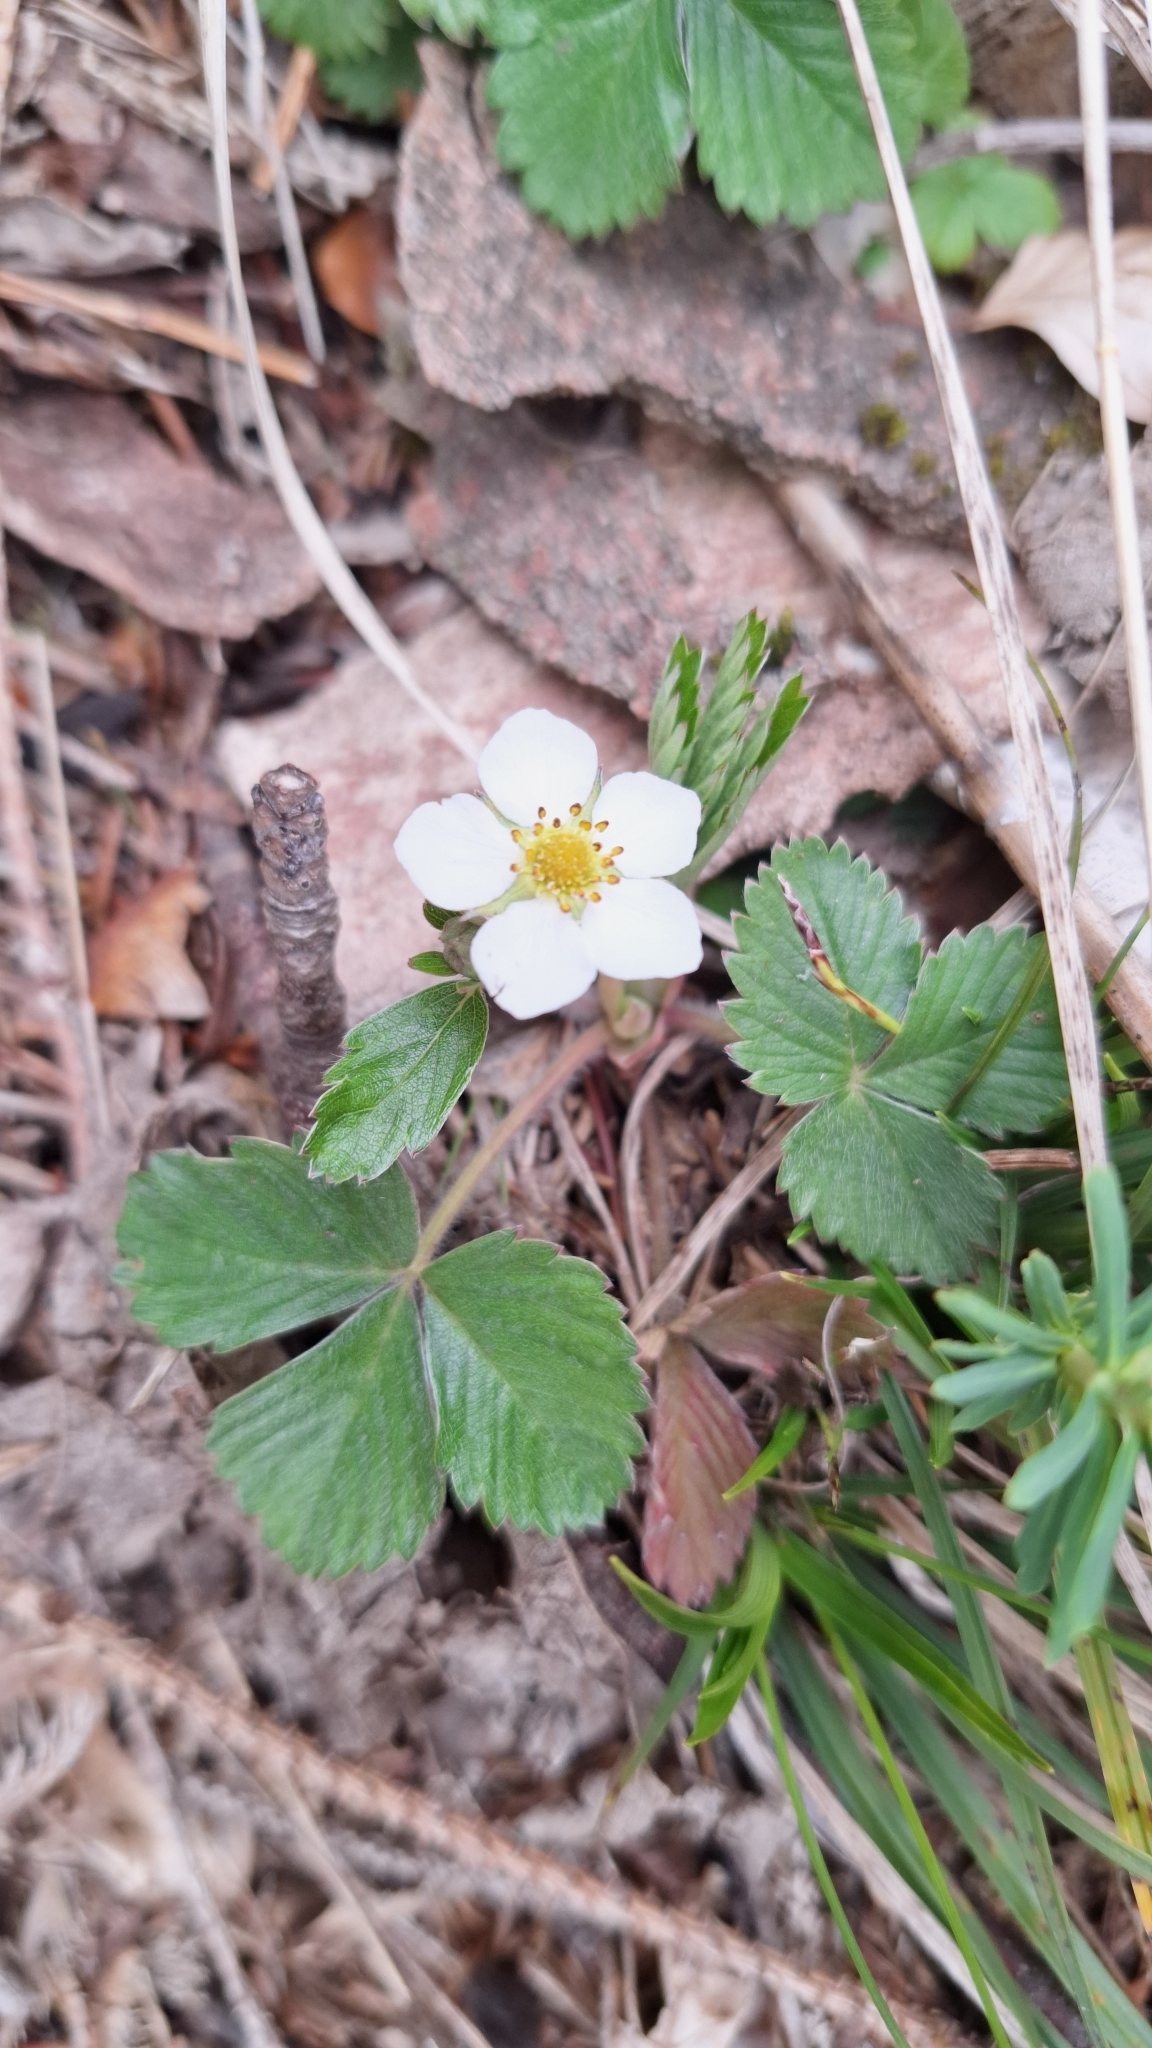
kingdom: Plantae
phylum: Tracheophyta
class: Magnoliopsida
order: Rosales
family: Rosaceae
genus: Fragaria
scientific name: Fragaria vesca
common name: Wild strawberry
